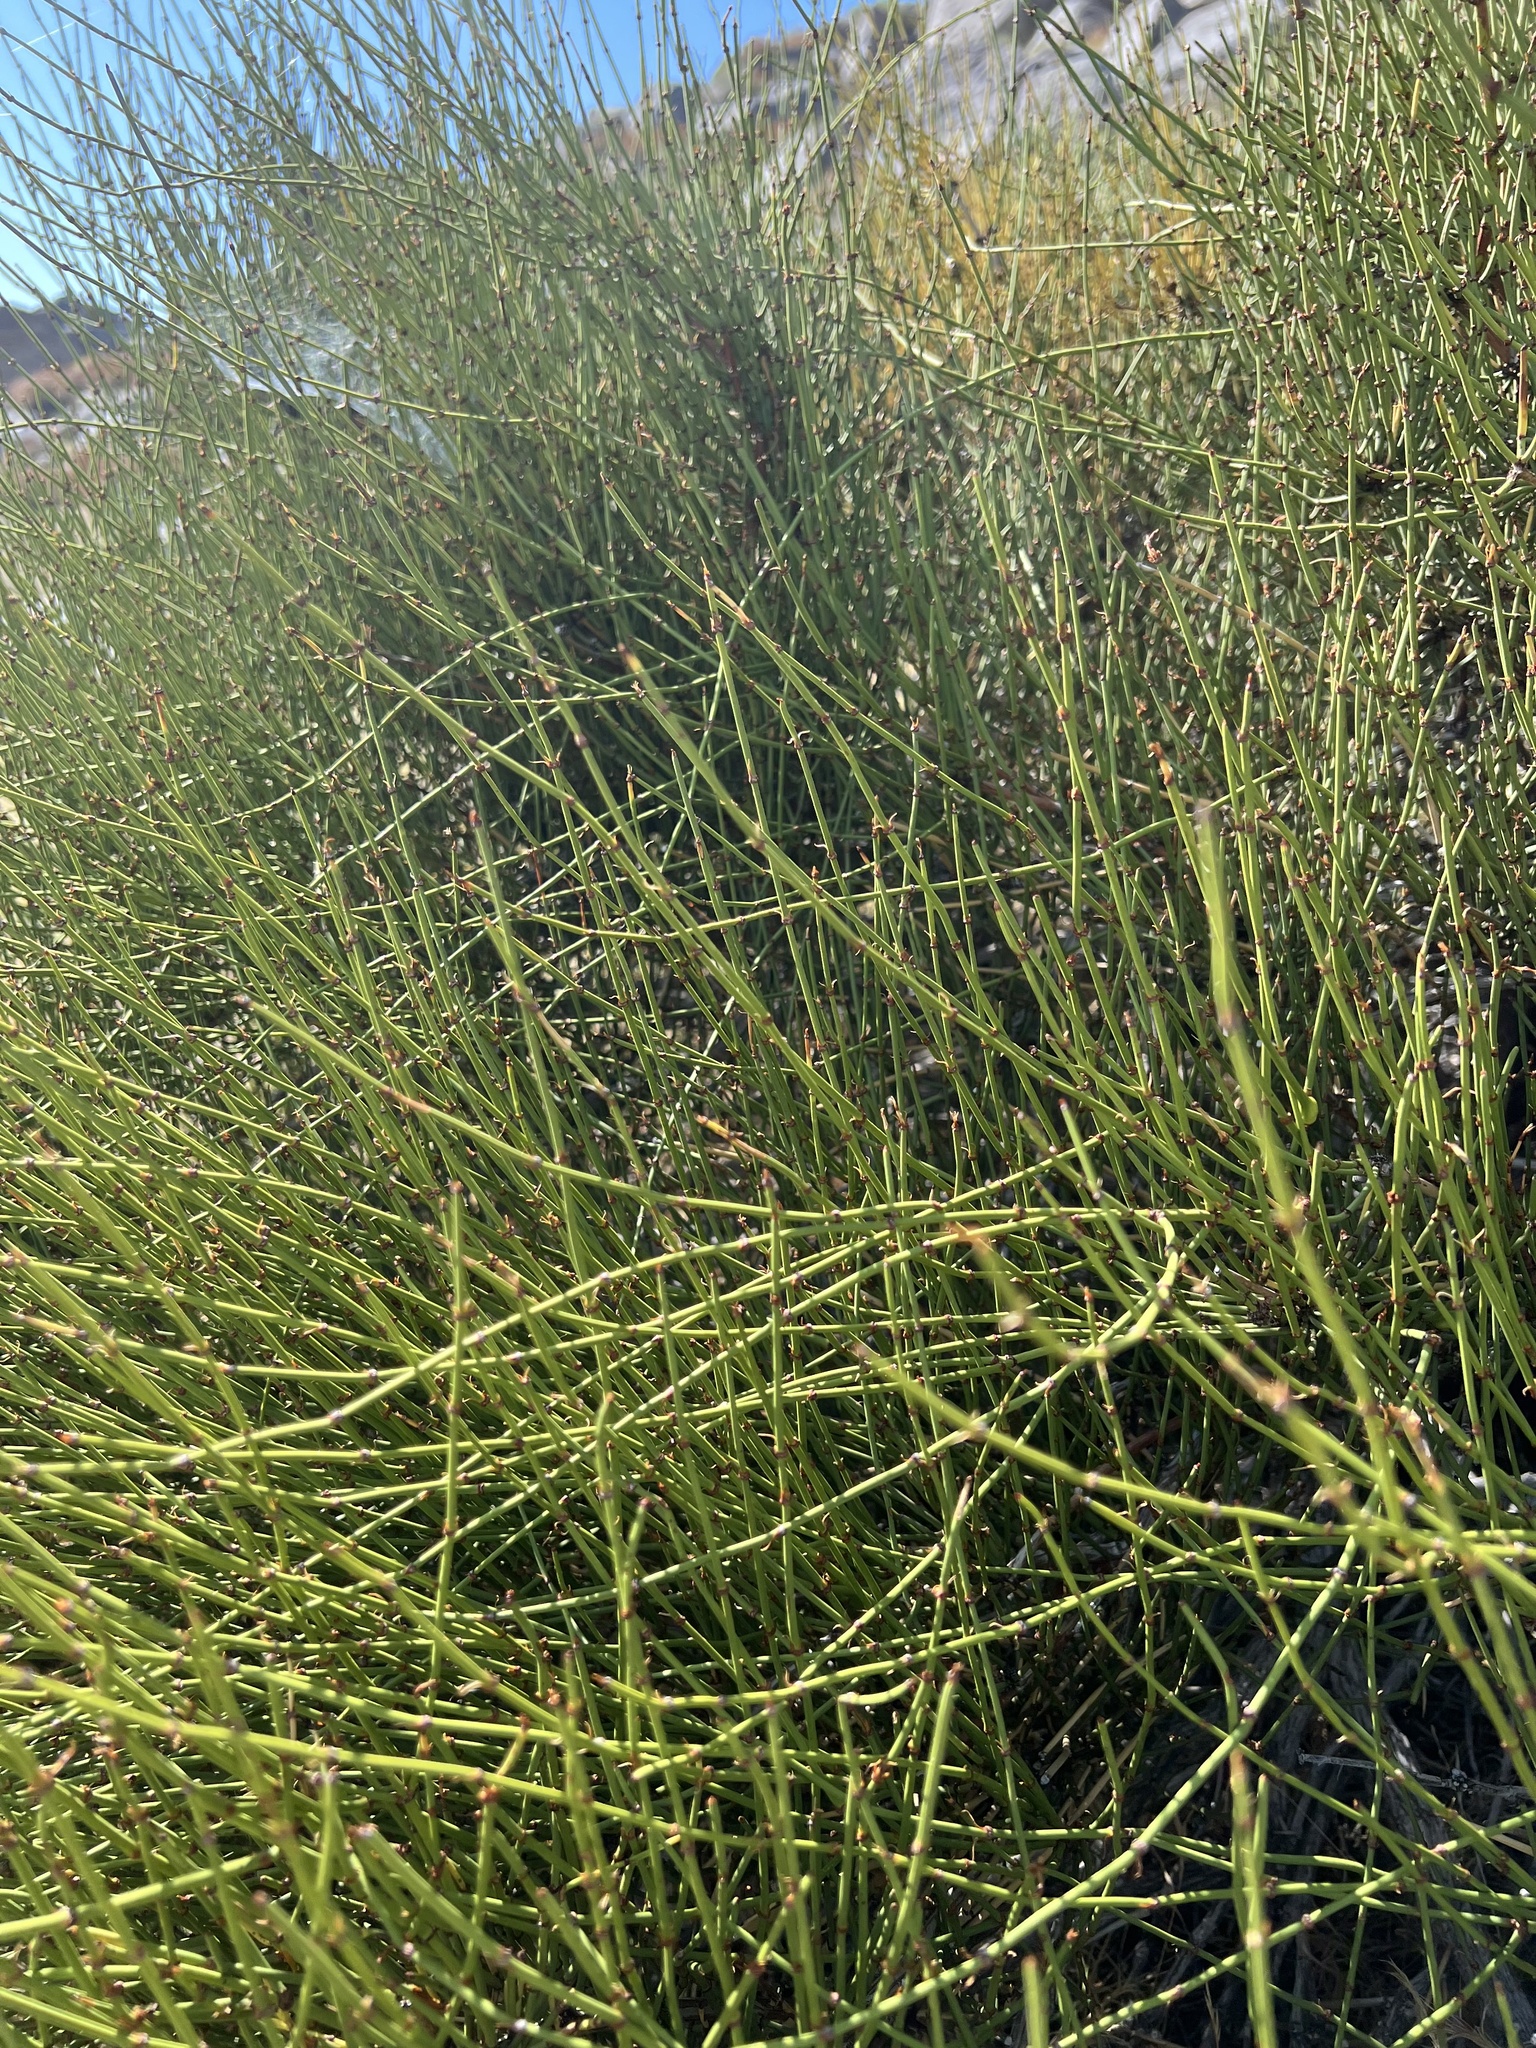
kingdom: Plantae
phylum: Tracheophyta
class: Gnetopsida
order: Ephedrales
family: Ephedraceae
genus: Ephedra
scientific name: Ephedra viridis
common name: Green ephedra
